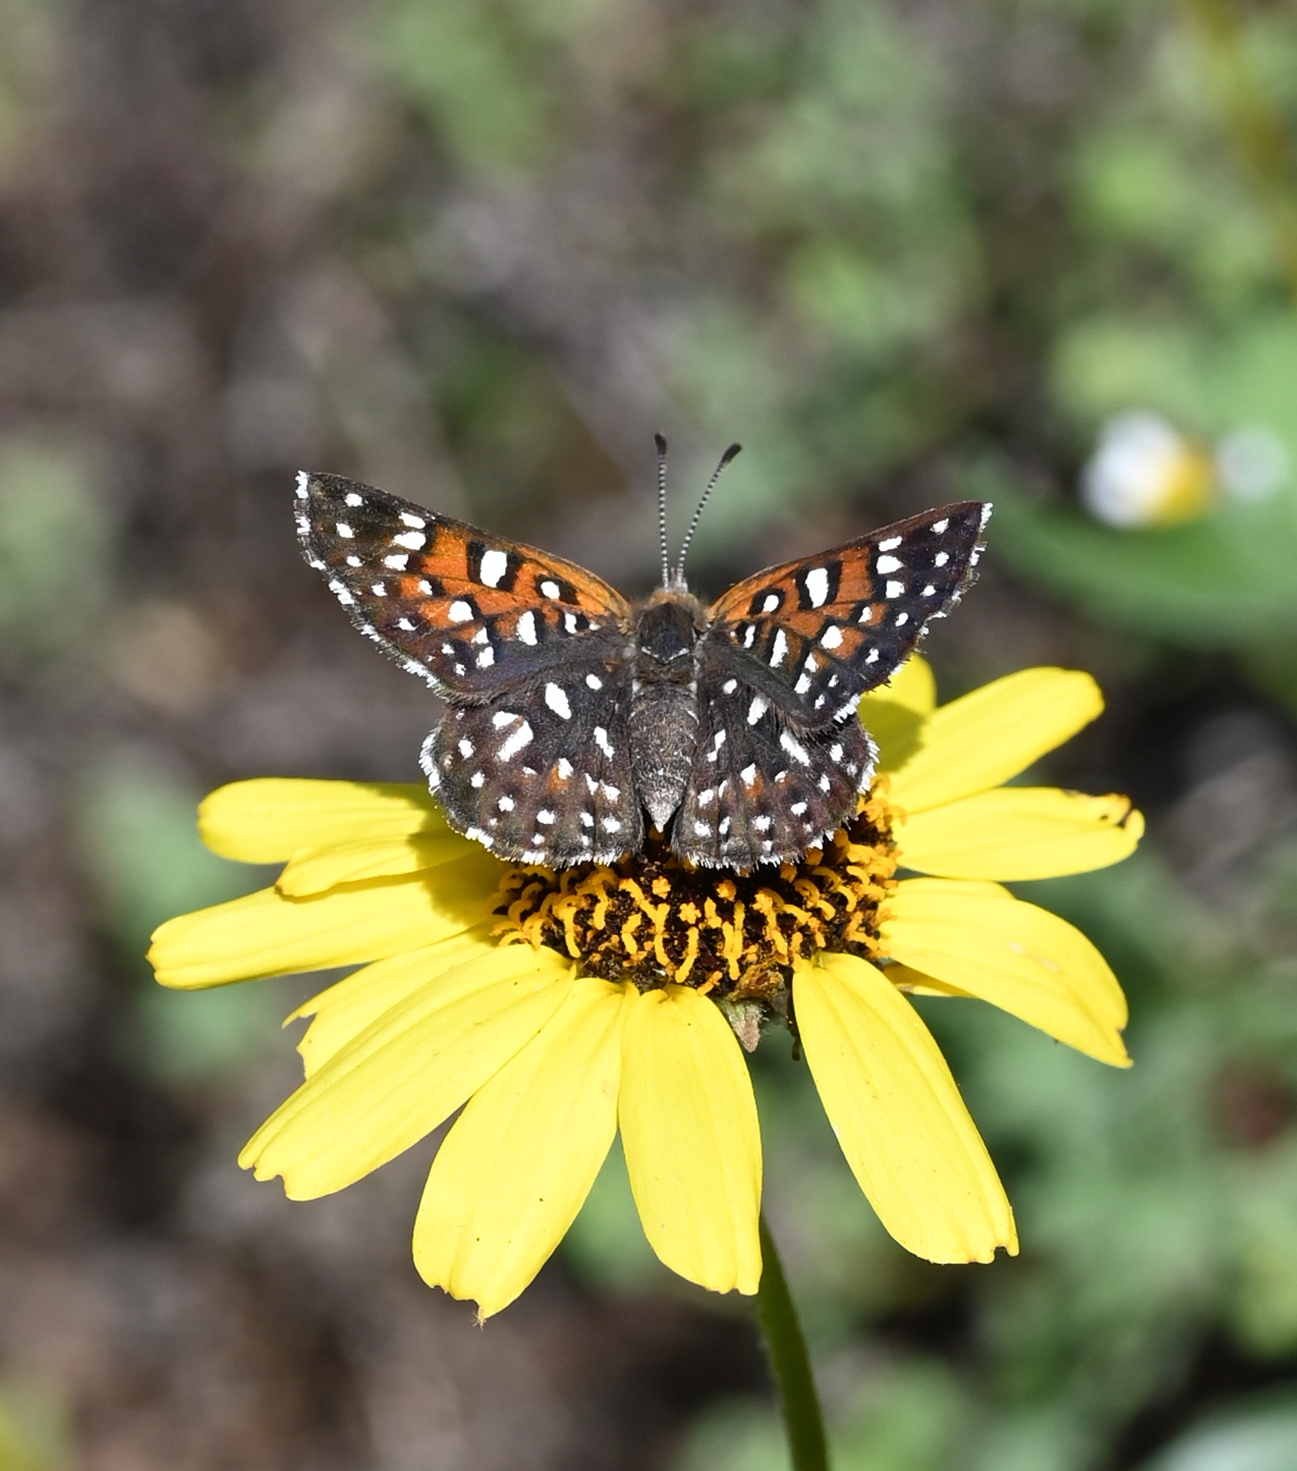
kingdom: Animalia
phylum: Arthropoda
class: Insecta
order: Lepidoptera
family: Riodinidae
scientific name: Riodinidae
